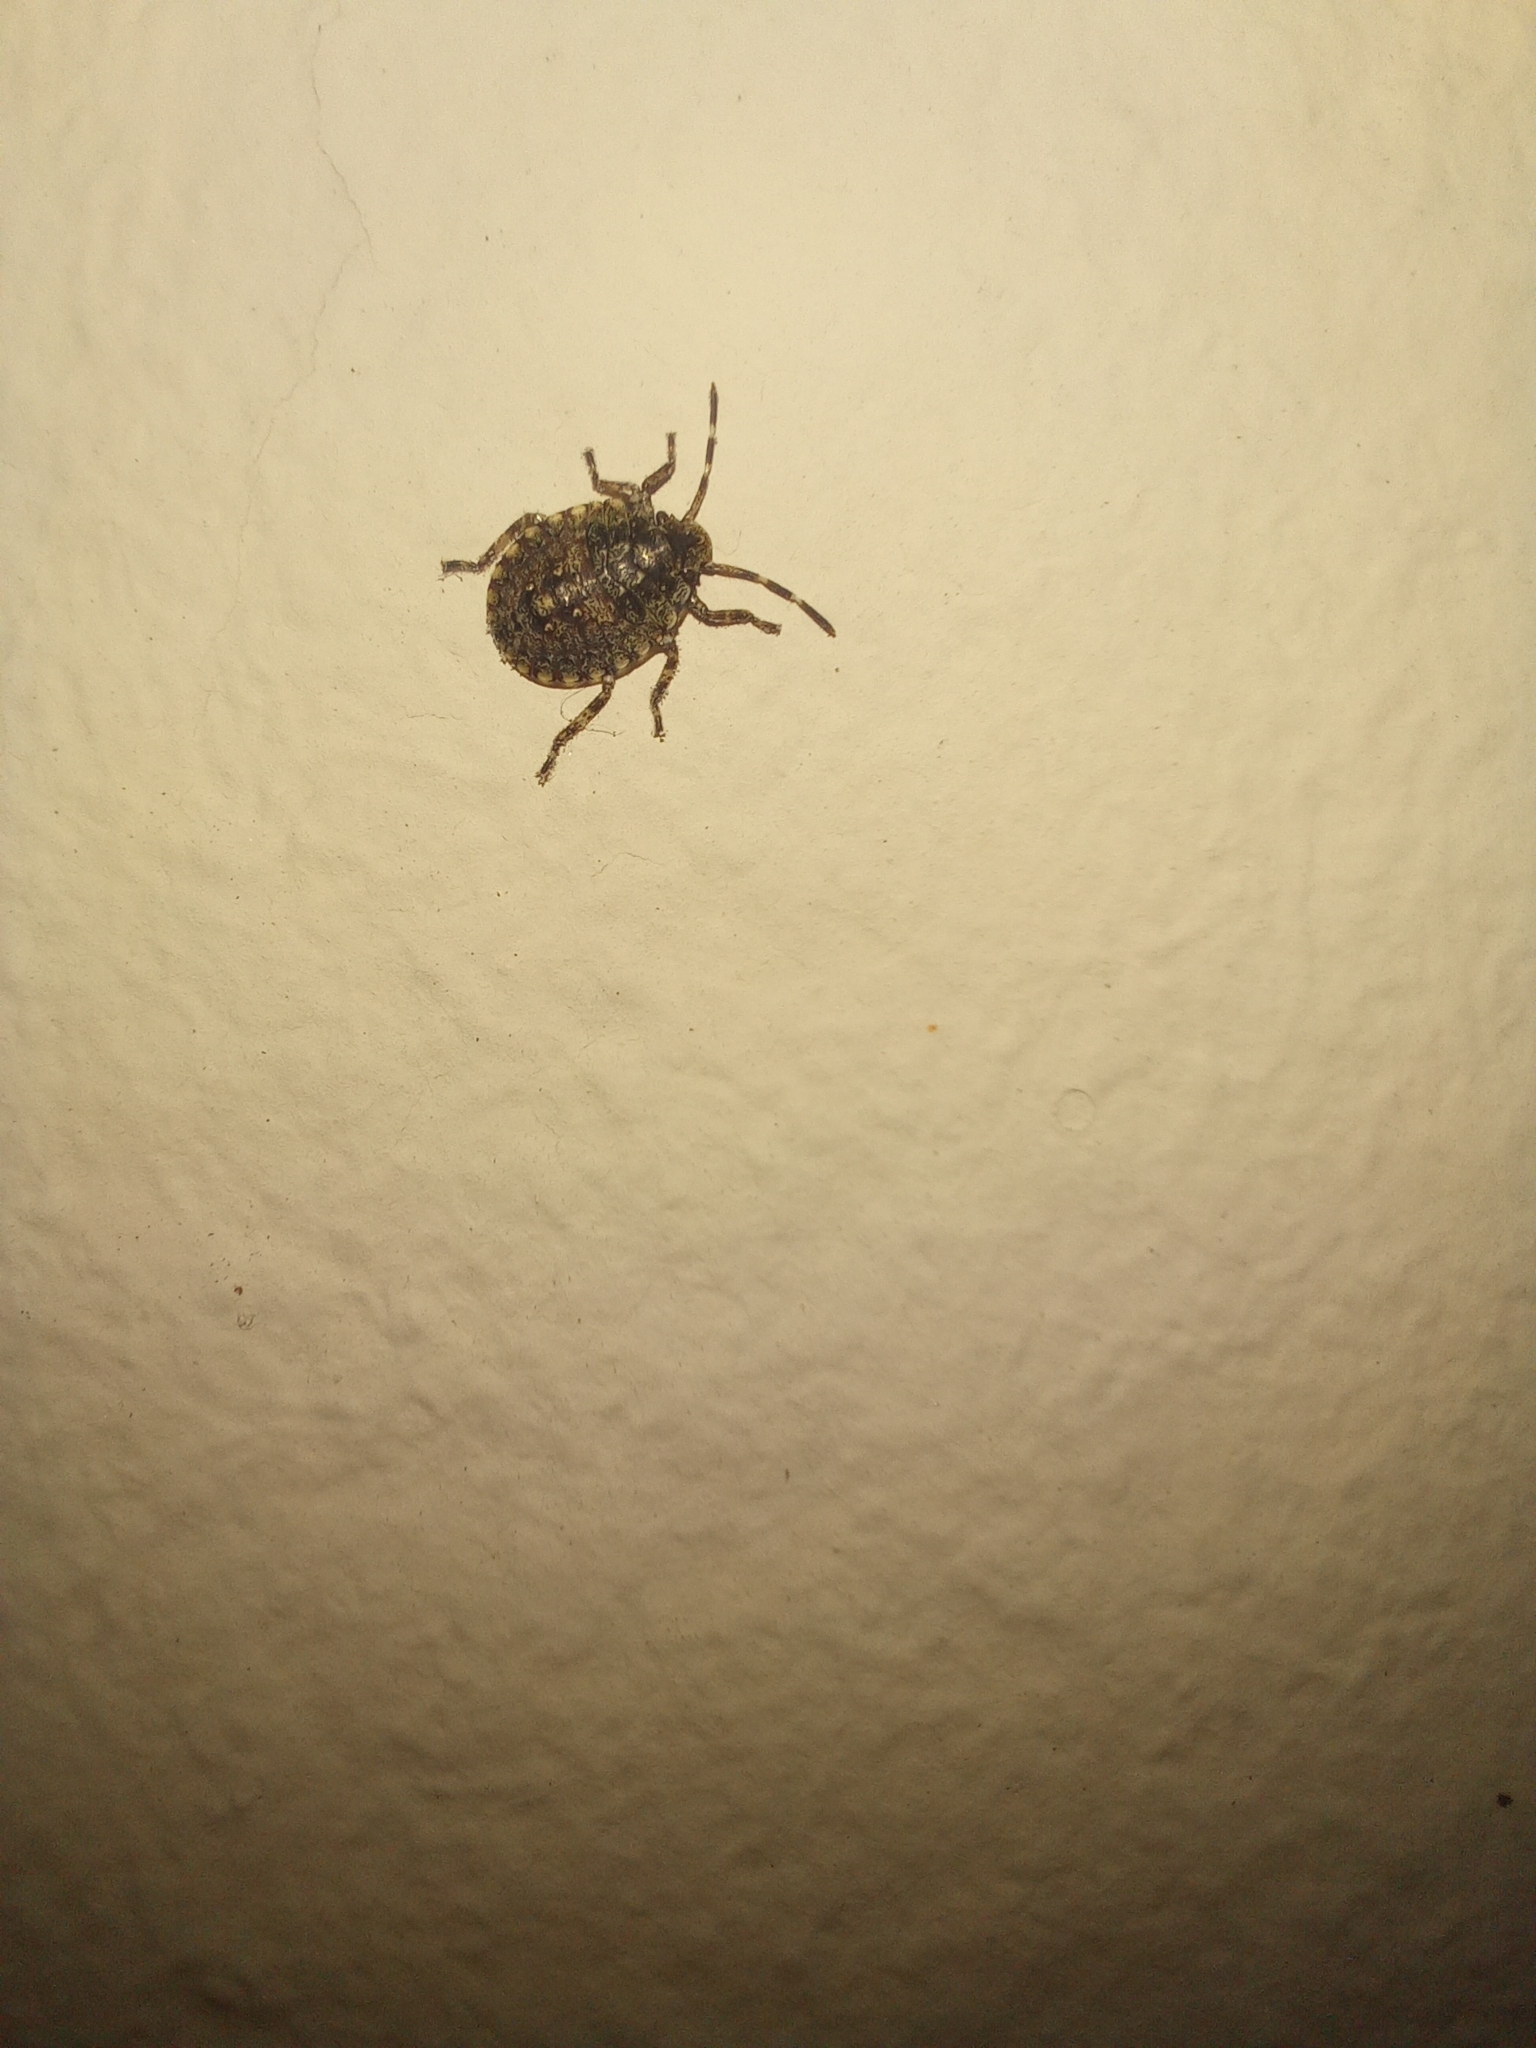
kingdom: Animalia
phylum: Arthropoda
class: Insecta
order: Hemiptera
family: Pentatomidae
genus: Antiteuchus
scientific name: Antiteuchus mixtus
